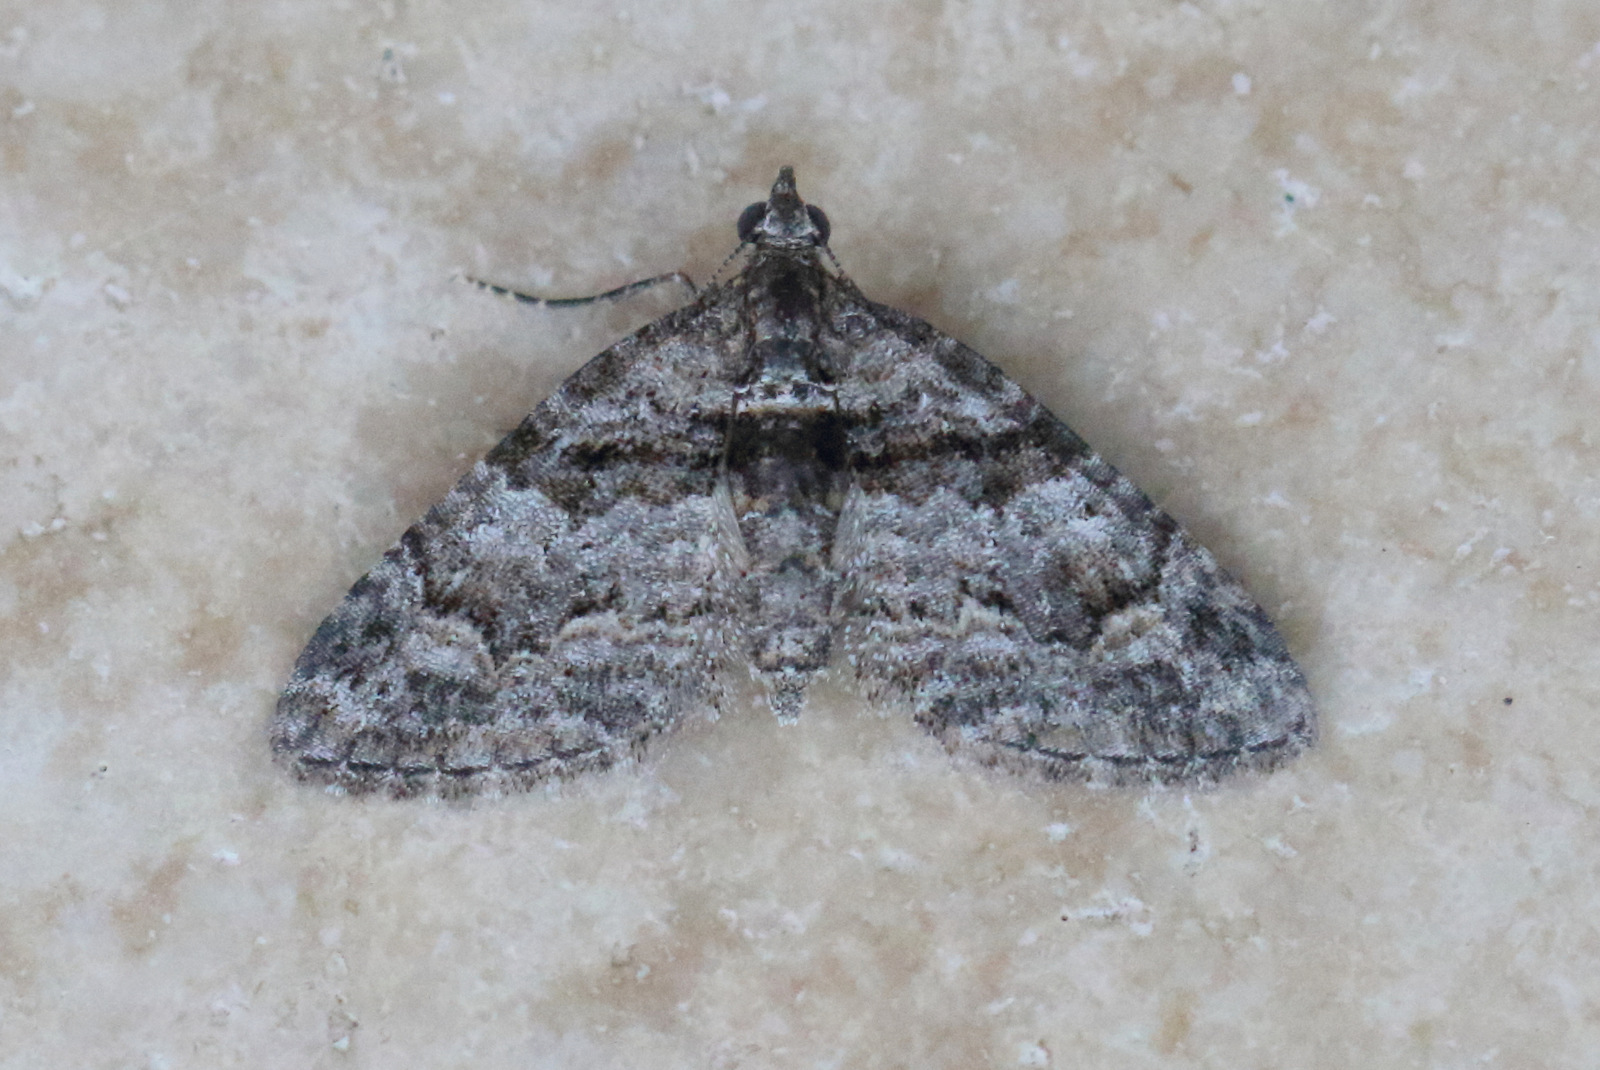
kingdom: Animalia
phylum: Arthropoda
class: Insecta
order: Lepidoptera
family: Geometridae
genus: Phrissogonus
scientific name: Phrissogonus laticostata
